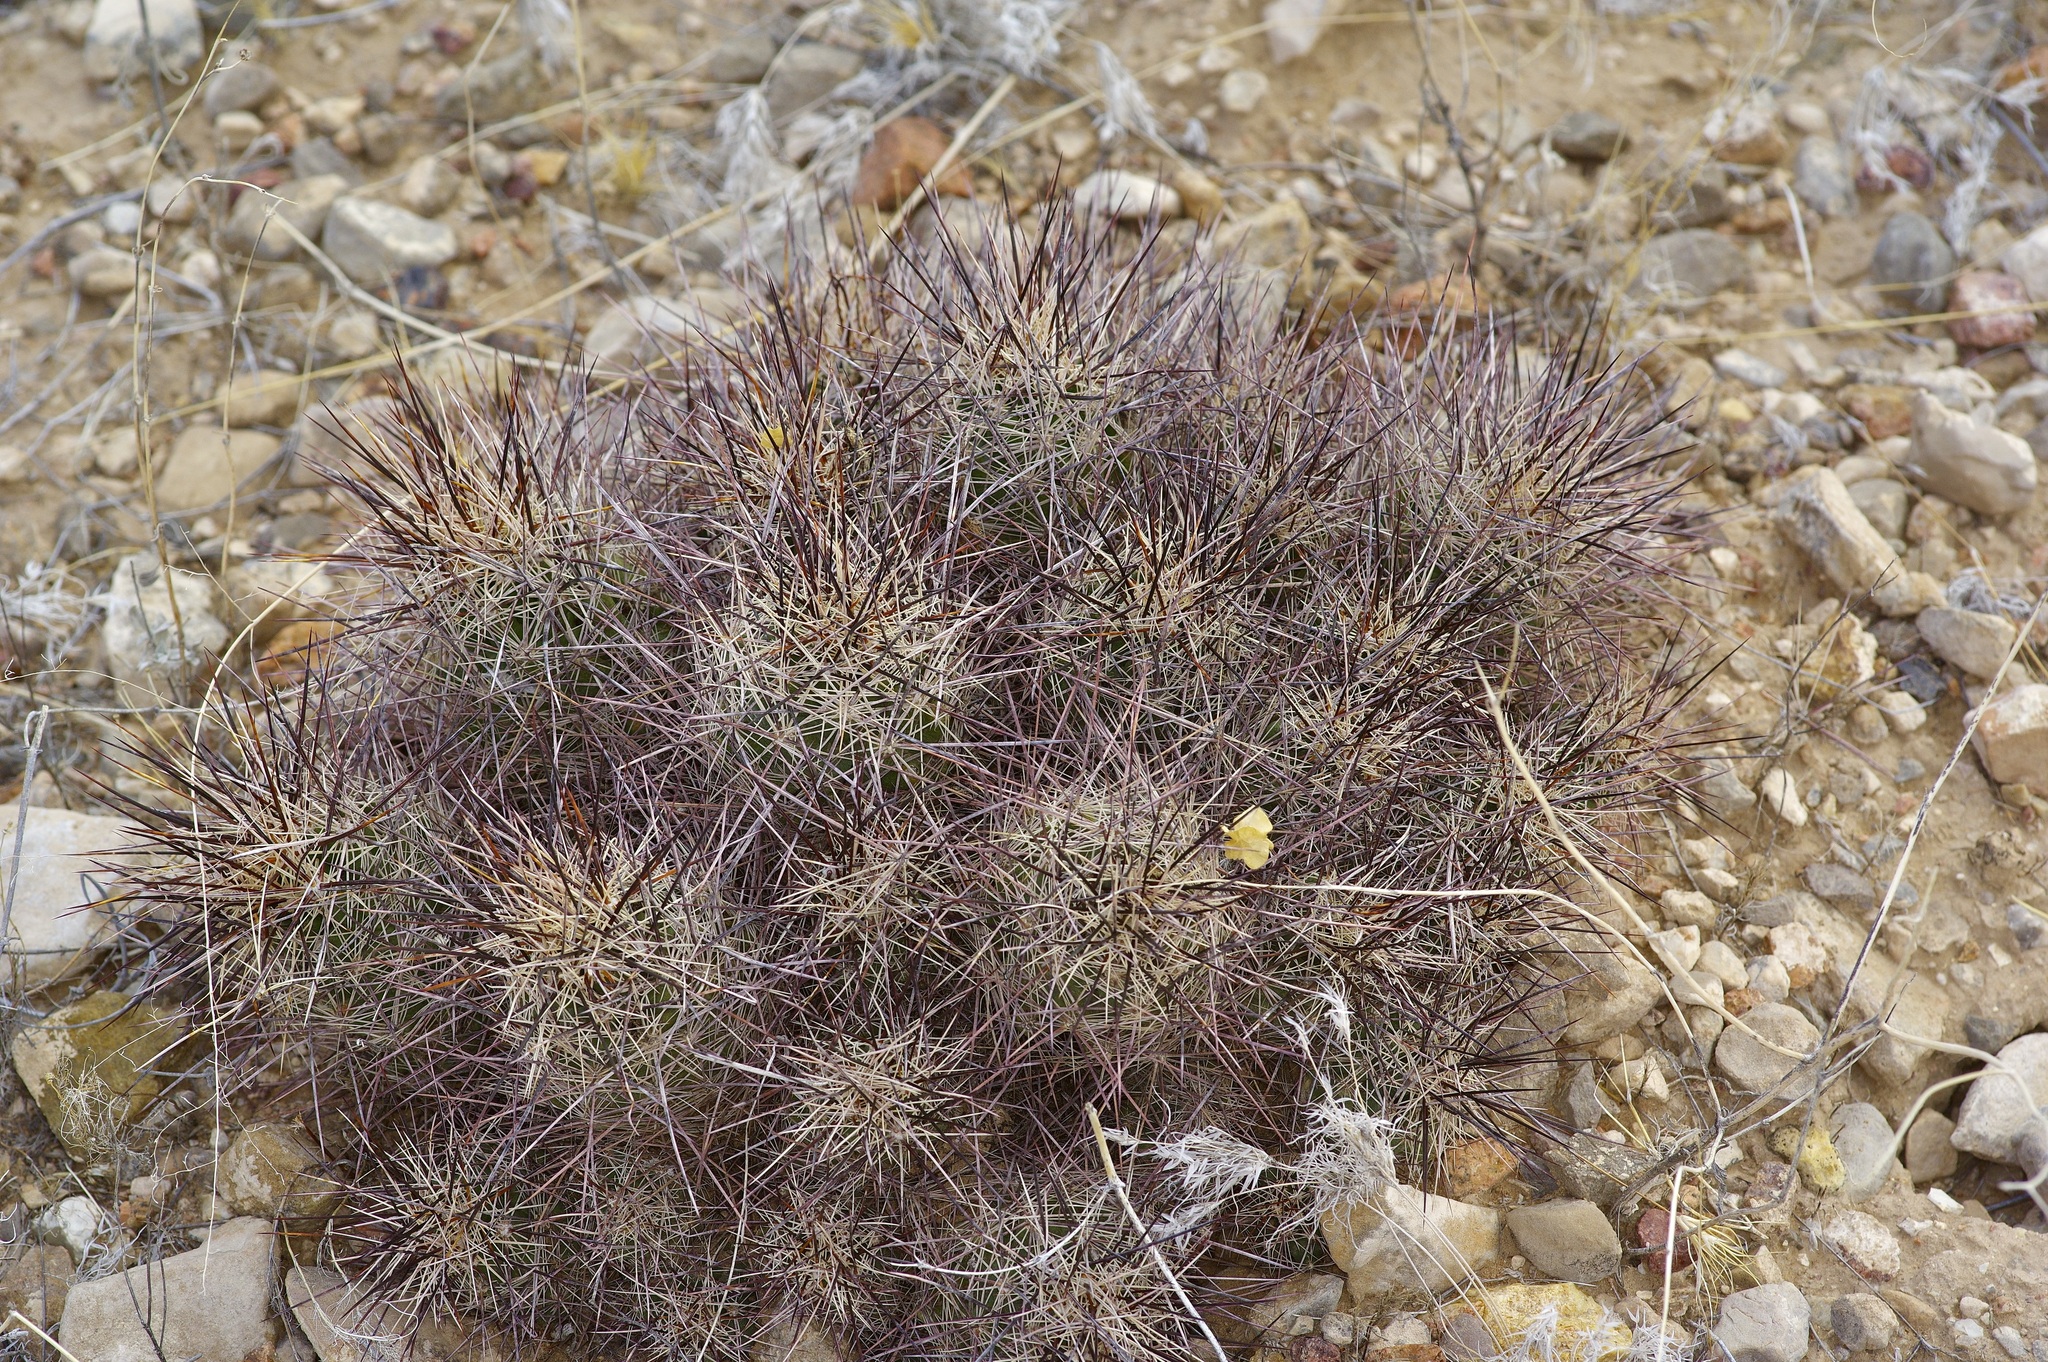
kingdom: Plantae
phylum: Tracheophyta
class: Magnoliopsida
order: Caryophyllales
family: Cactaceae
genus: Coryphantha
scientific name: Coryphantha macromeris
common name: Nipple beehive cactus
